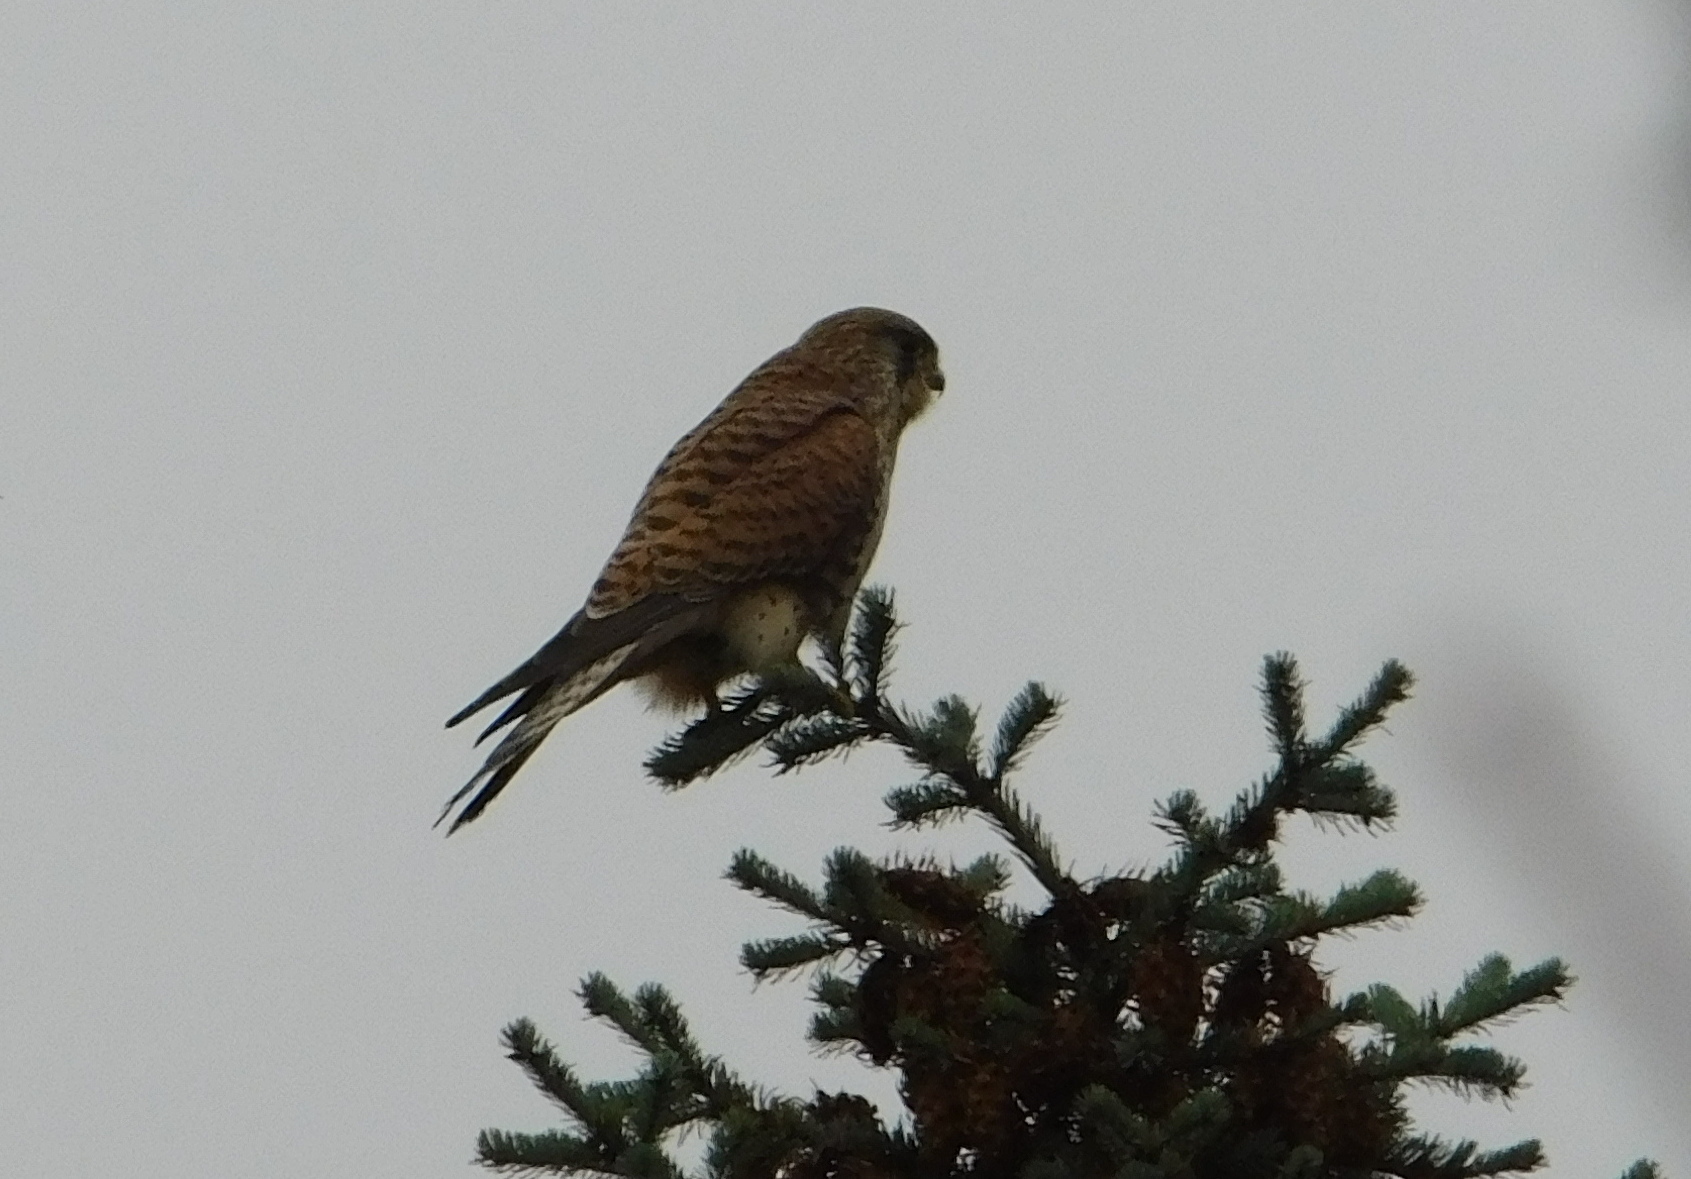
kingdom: Animalia
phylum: Chordata
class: Aves
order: Falconiformes
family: Falconidae
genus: Falco
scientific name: Falco tinnunculus
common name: Common kestrel
